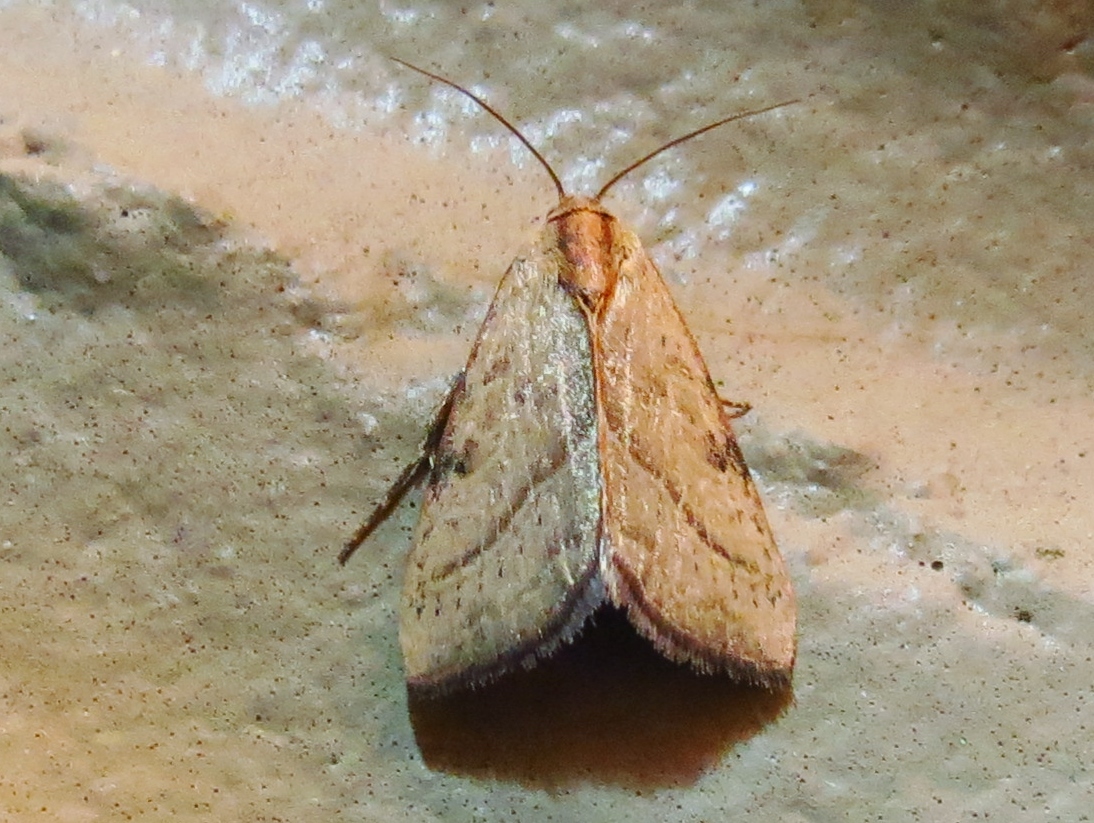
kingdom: Animalia
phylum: Arthropoda
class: Insecta
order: Lepidoptera
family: Noctuidae
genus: Galgula
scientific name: Galgula partita
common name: Wedgeling
